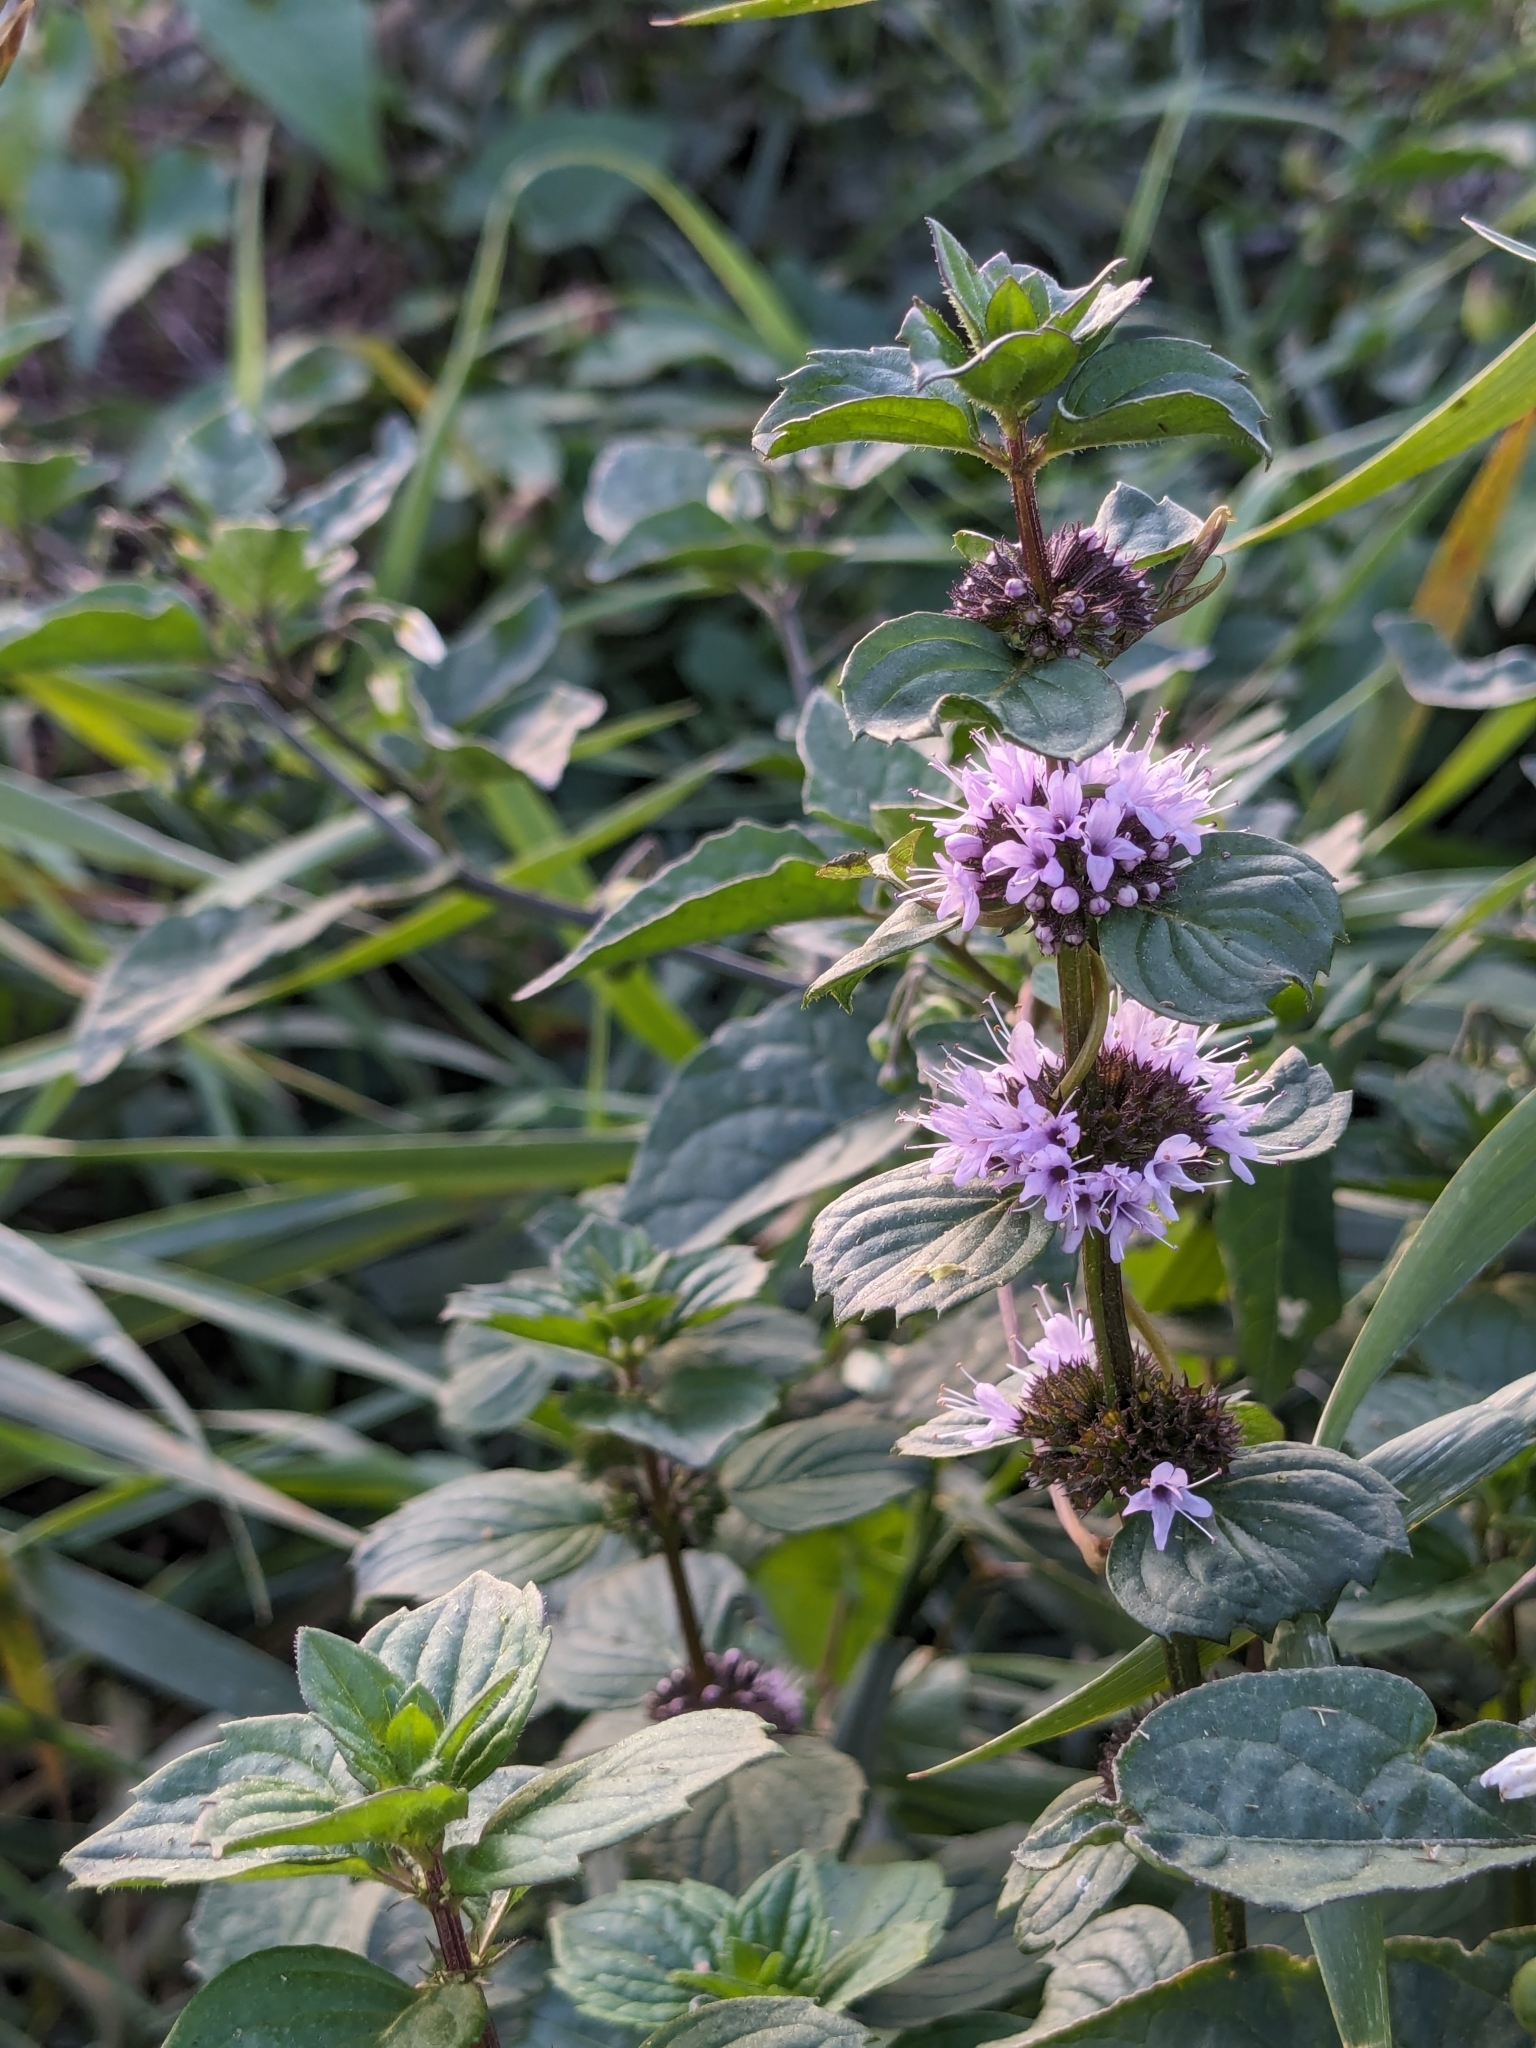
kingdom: Plantae
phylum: Tracheophyta
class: Magnoliopsida
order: Lamiales
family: Lamiaceae
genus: Mentha
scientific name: Mentha pulegium
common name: Pennyroyal
